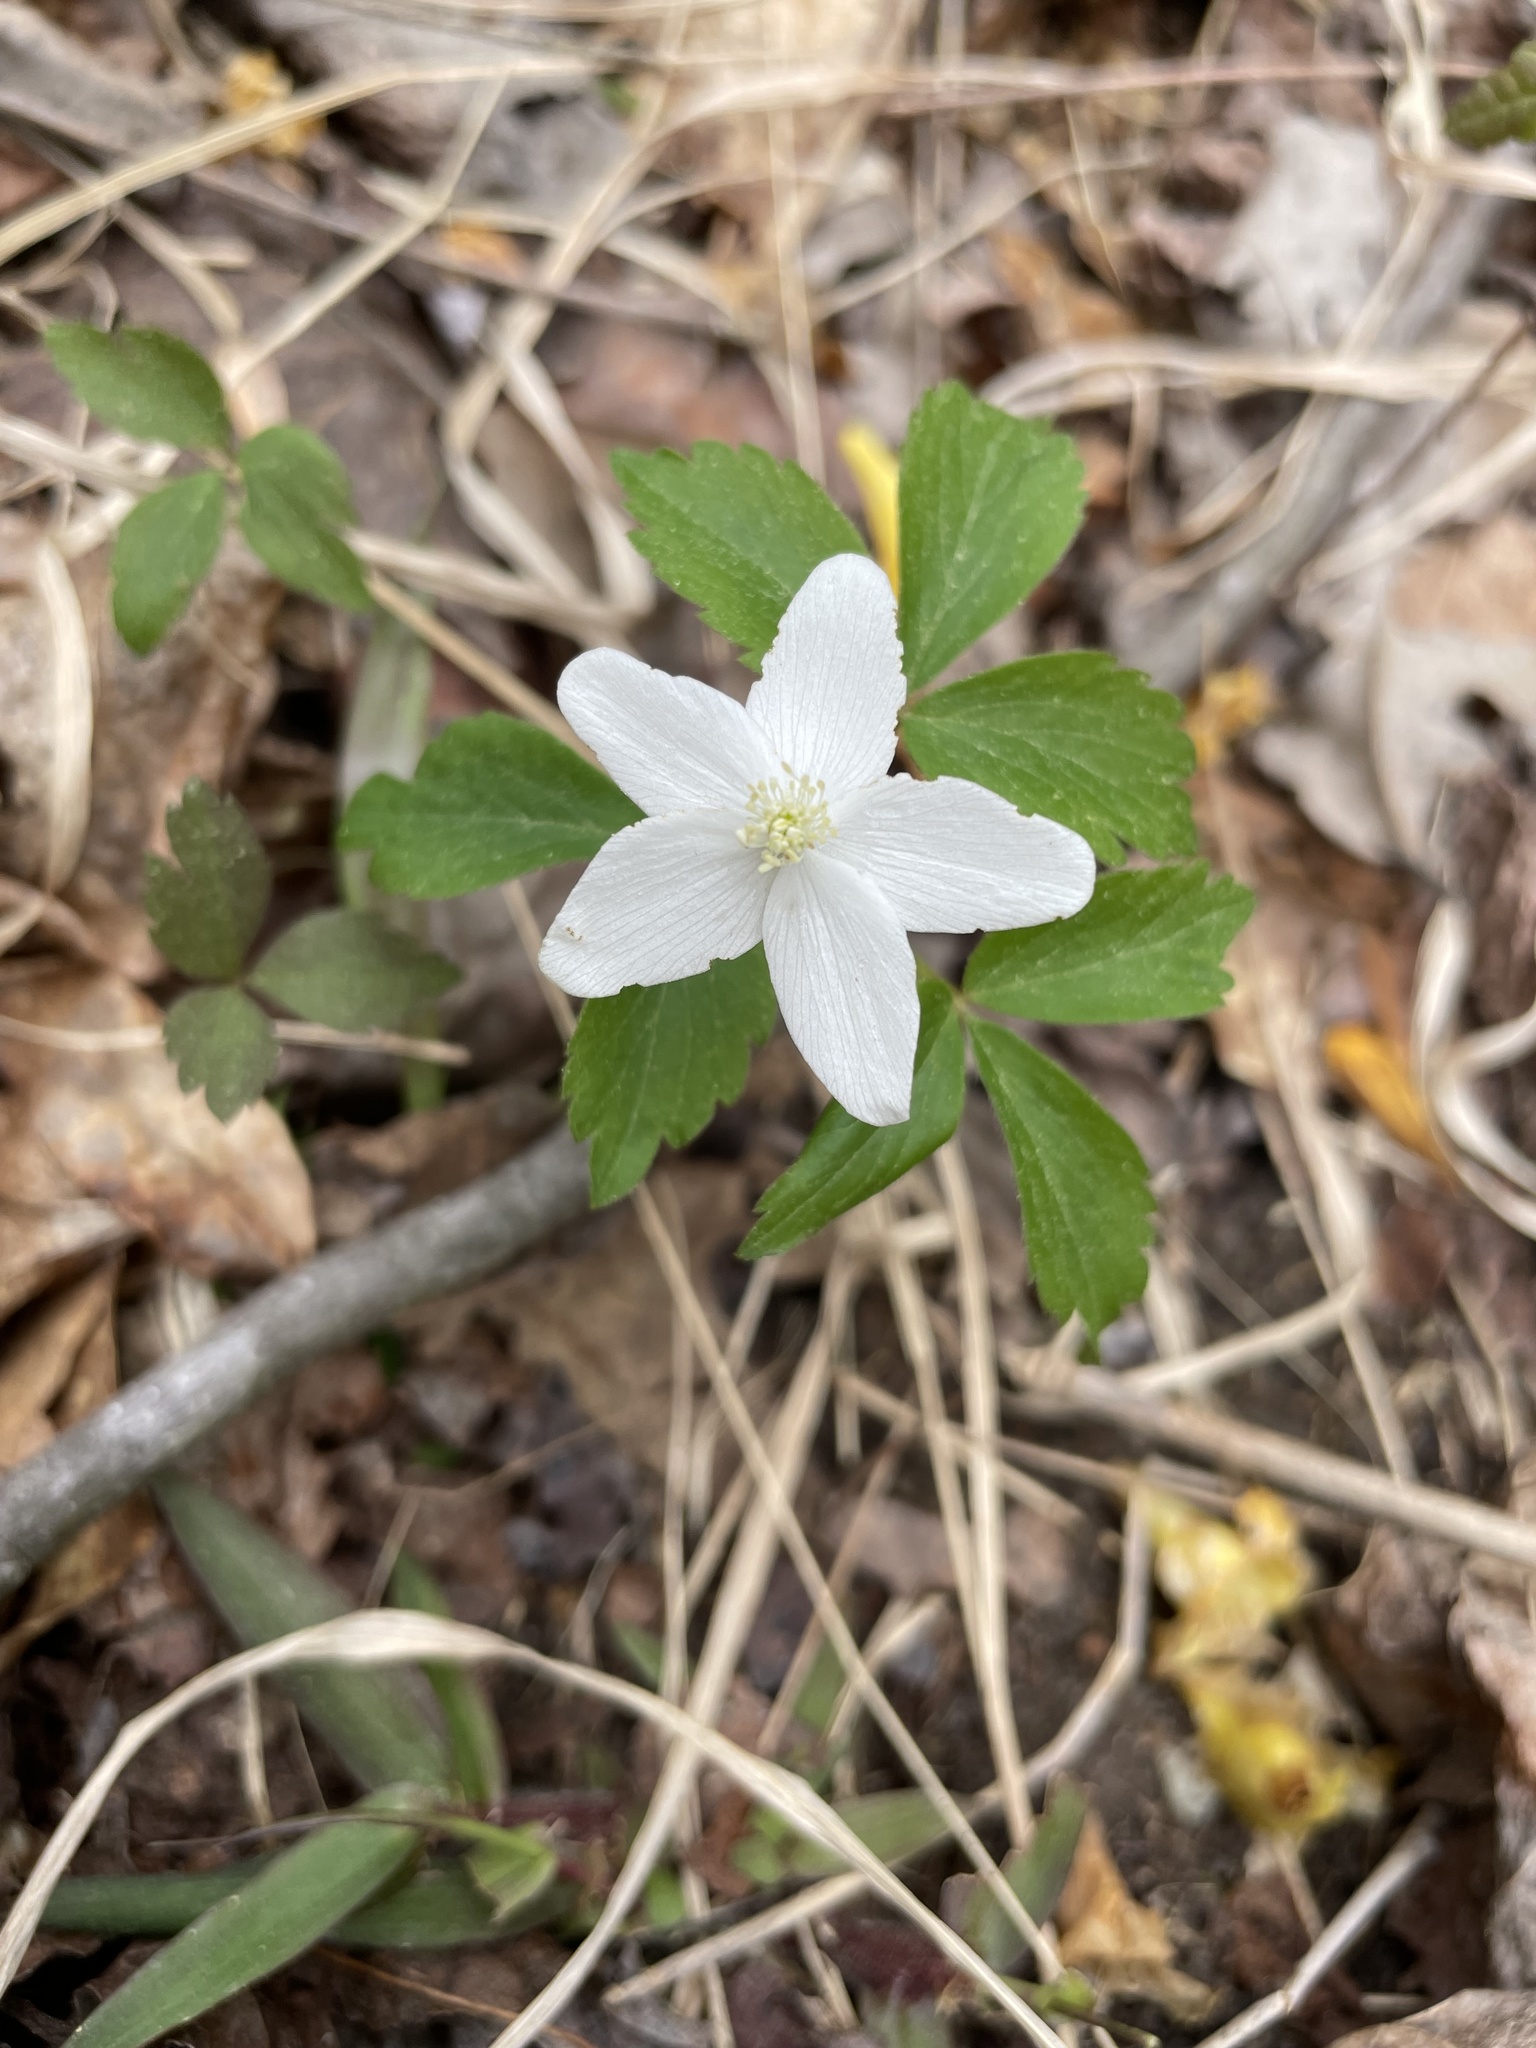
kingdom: Plantae
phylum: Tracheophyta
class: Magnoliopsida
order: Ranunculales
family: Ranunculaceae
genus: Anemone
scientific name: Anemone lancifolia
